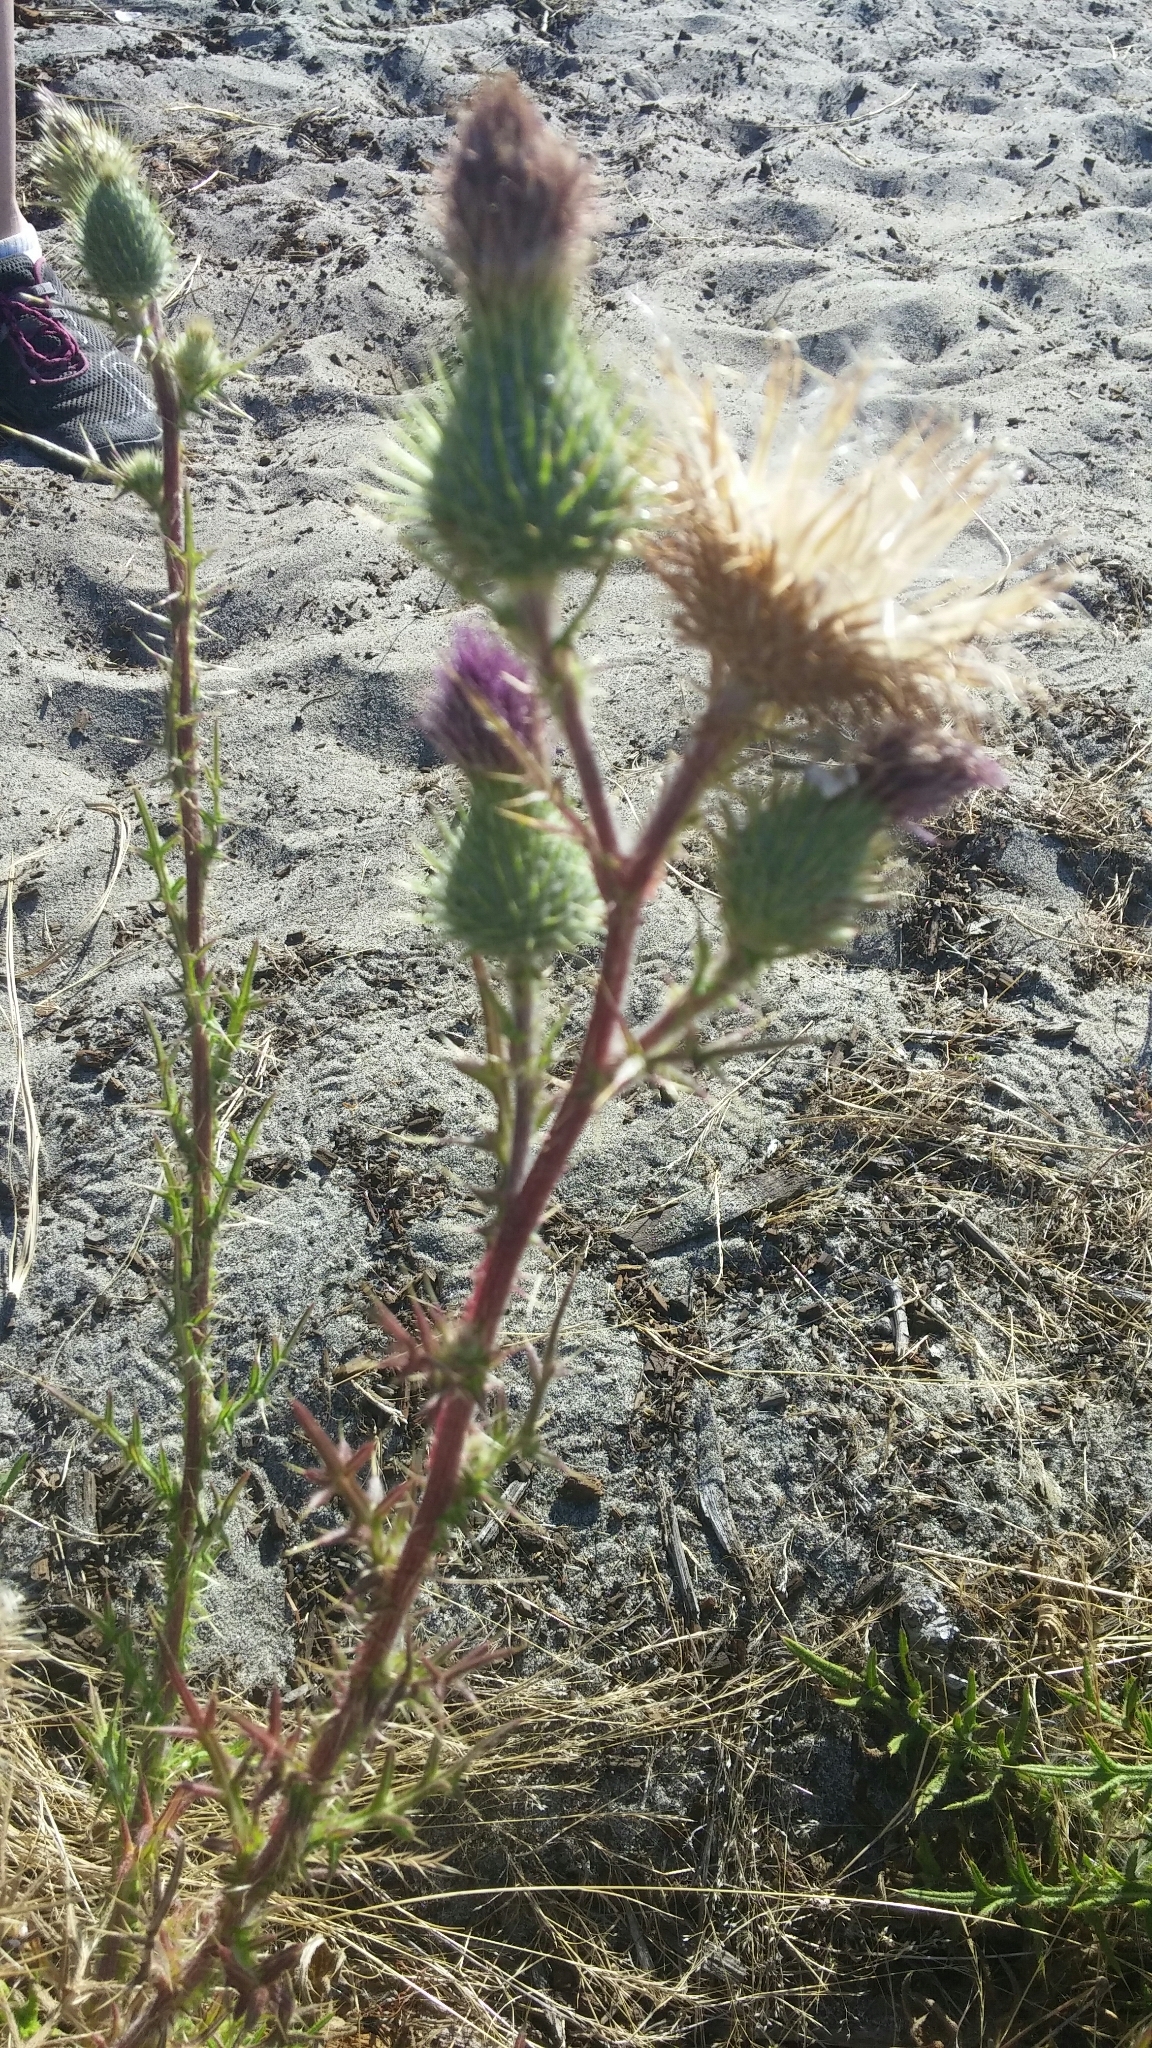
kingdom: Plantae
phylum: Tracheophyta
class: Magnoliopsida
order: Asterales
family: Asteraceae
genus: Cirsium
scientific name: Cirsium vulgare
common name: Bull thistle
